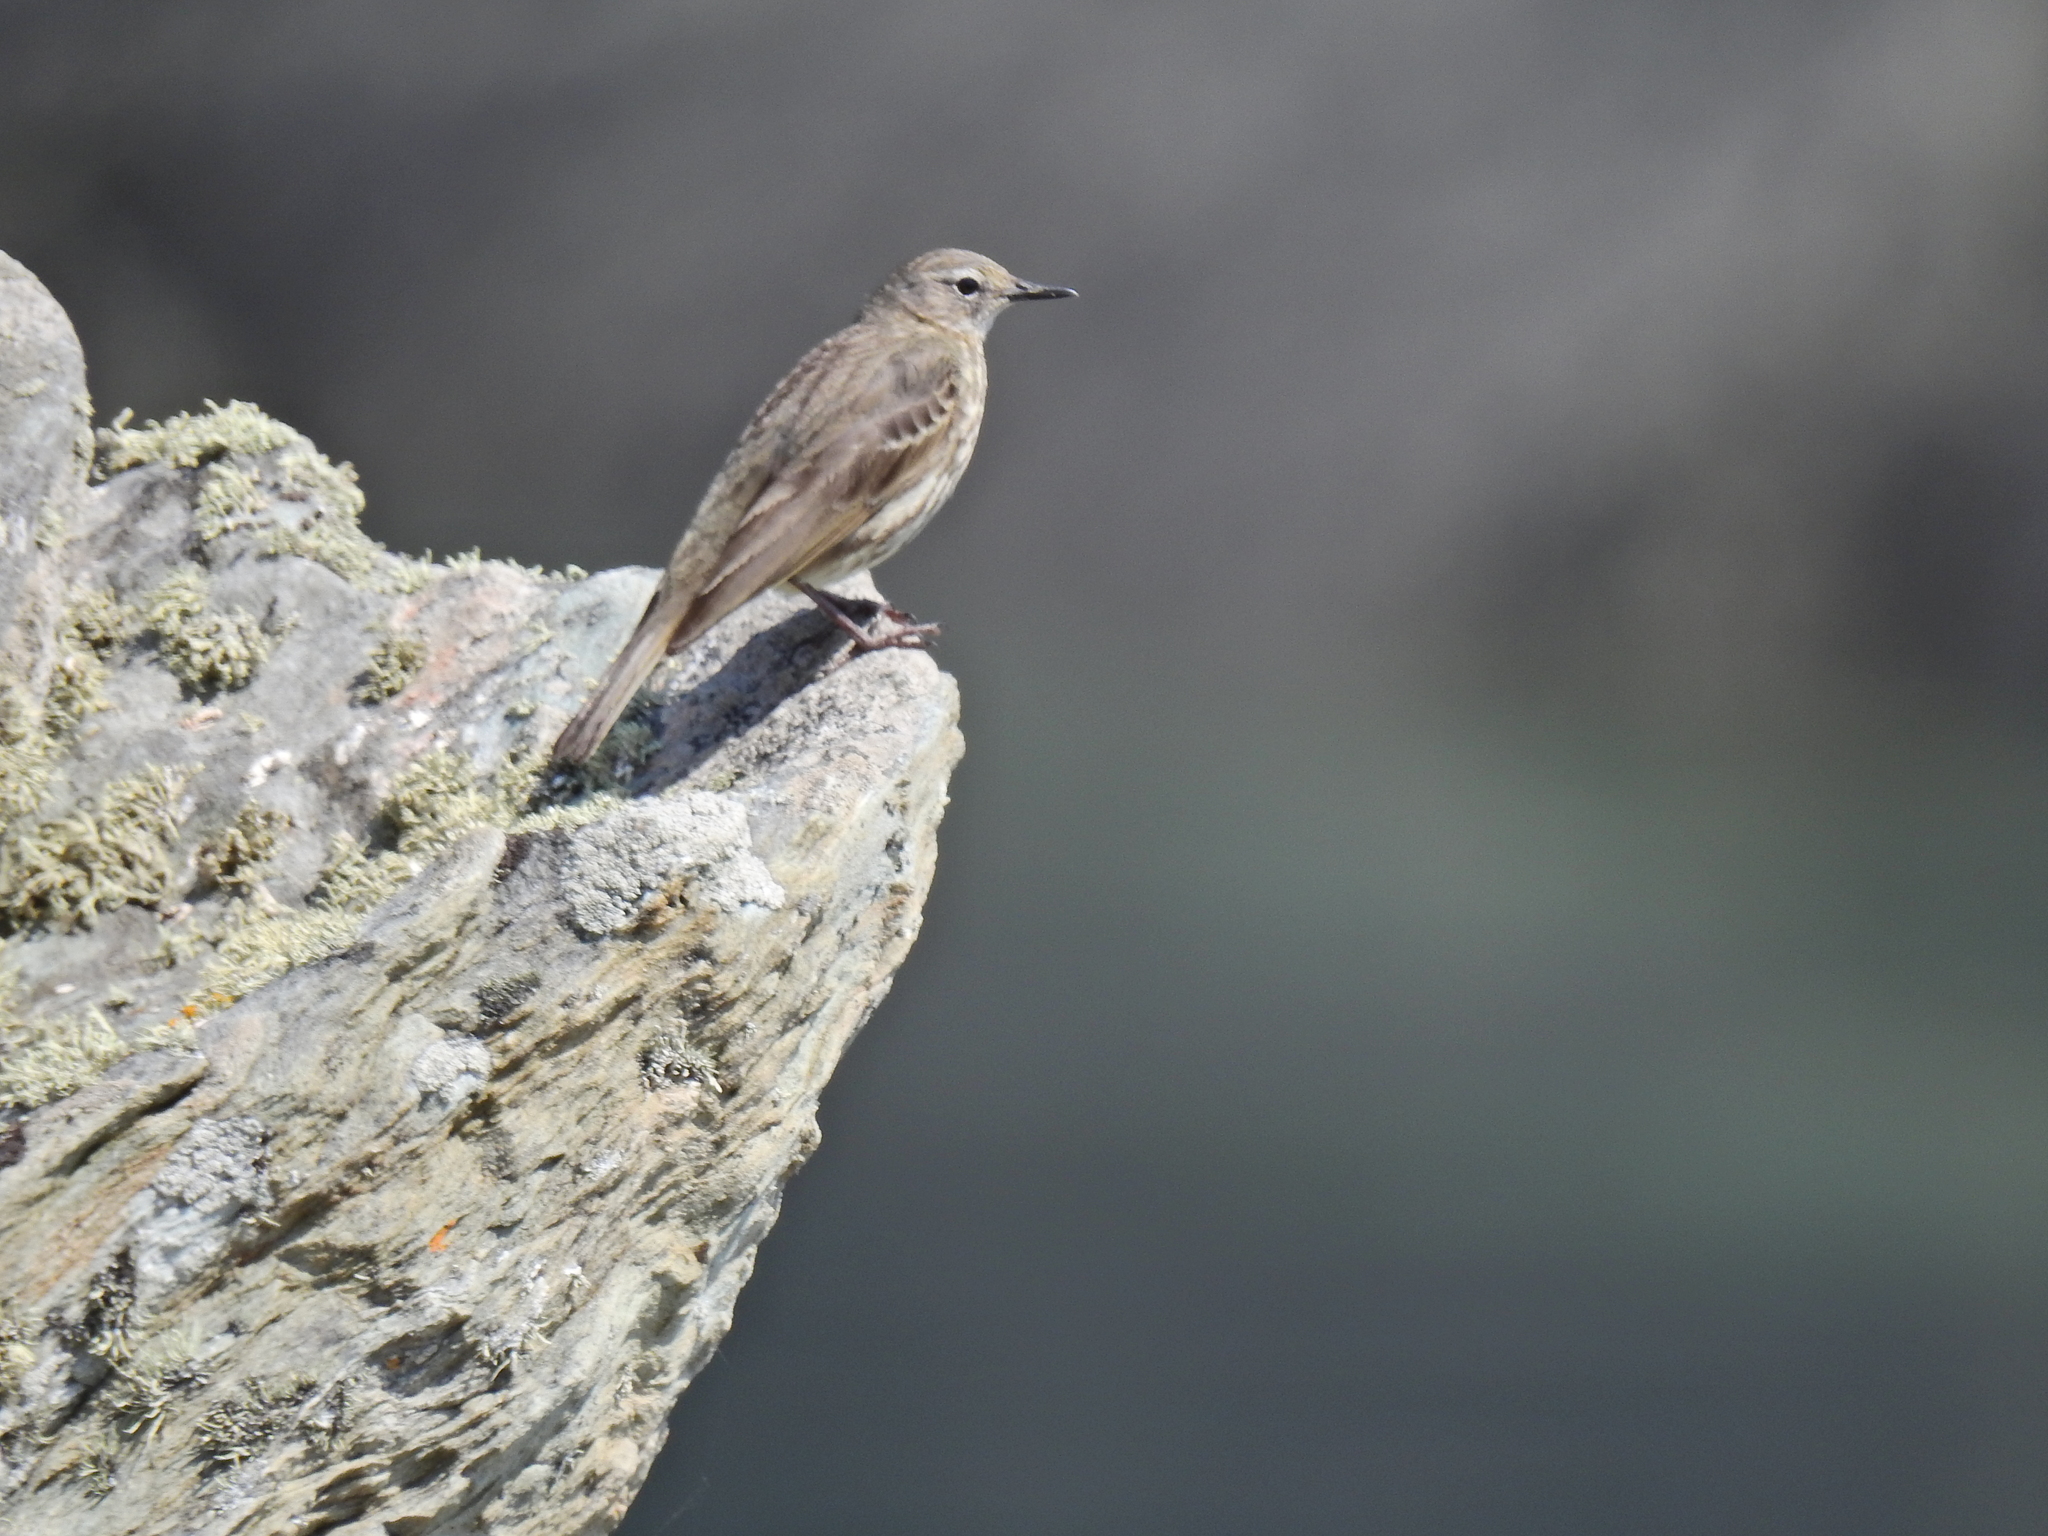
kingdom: Animalia
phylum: Chordata
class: Aves
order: Passeriformes
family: Motacillidae
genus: Anthus
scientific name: Anthus petrosus
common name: Eurasian rock pipit
